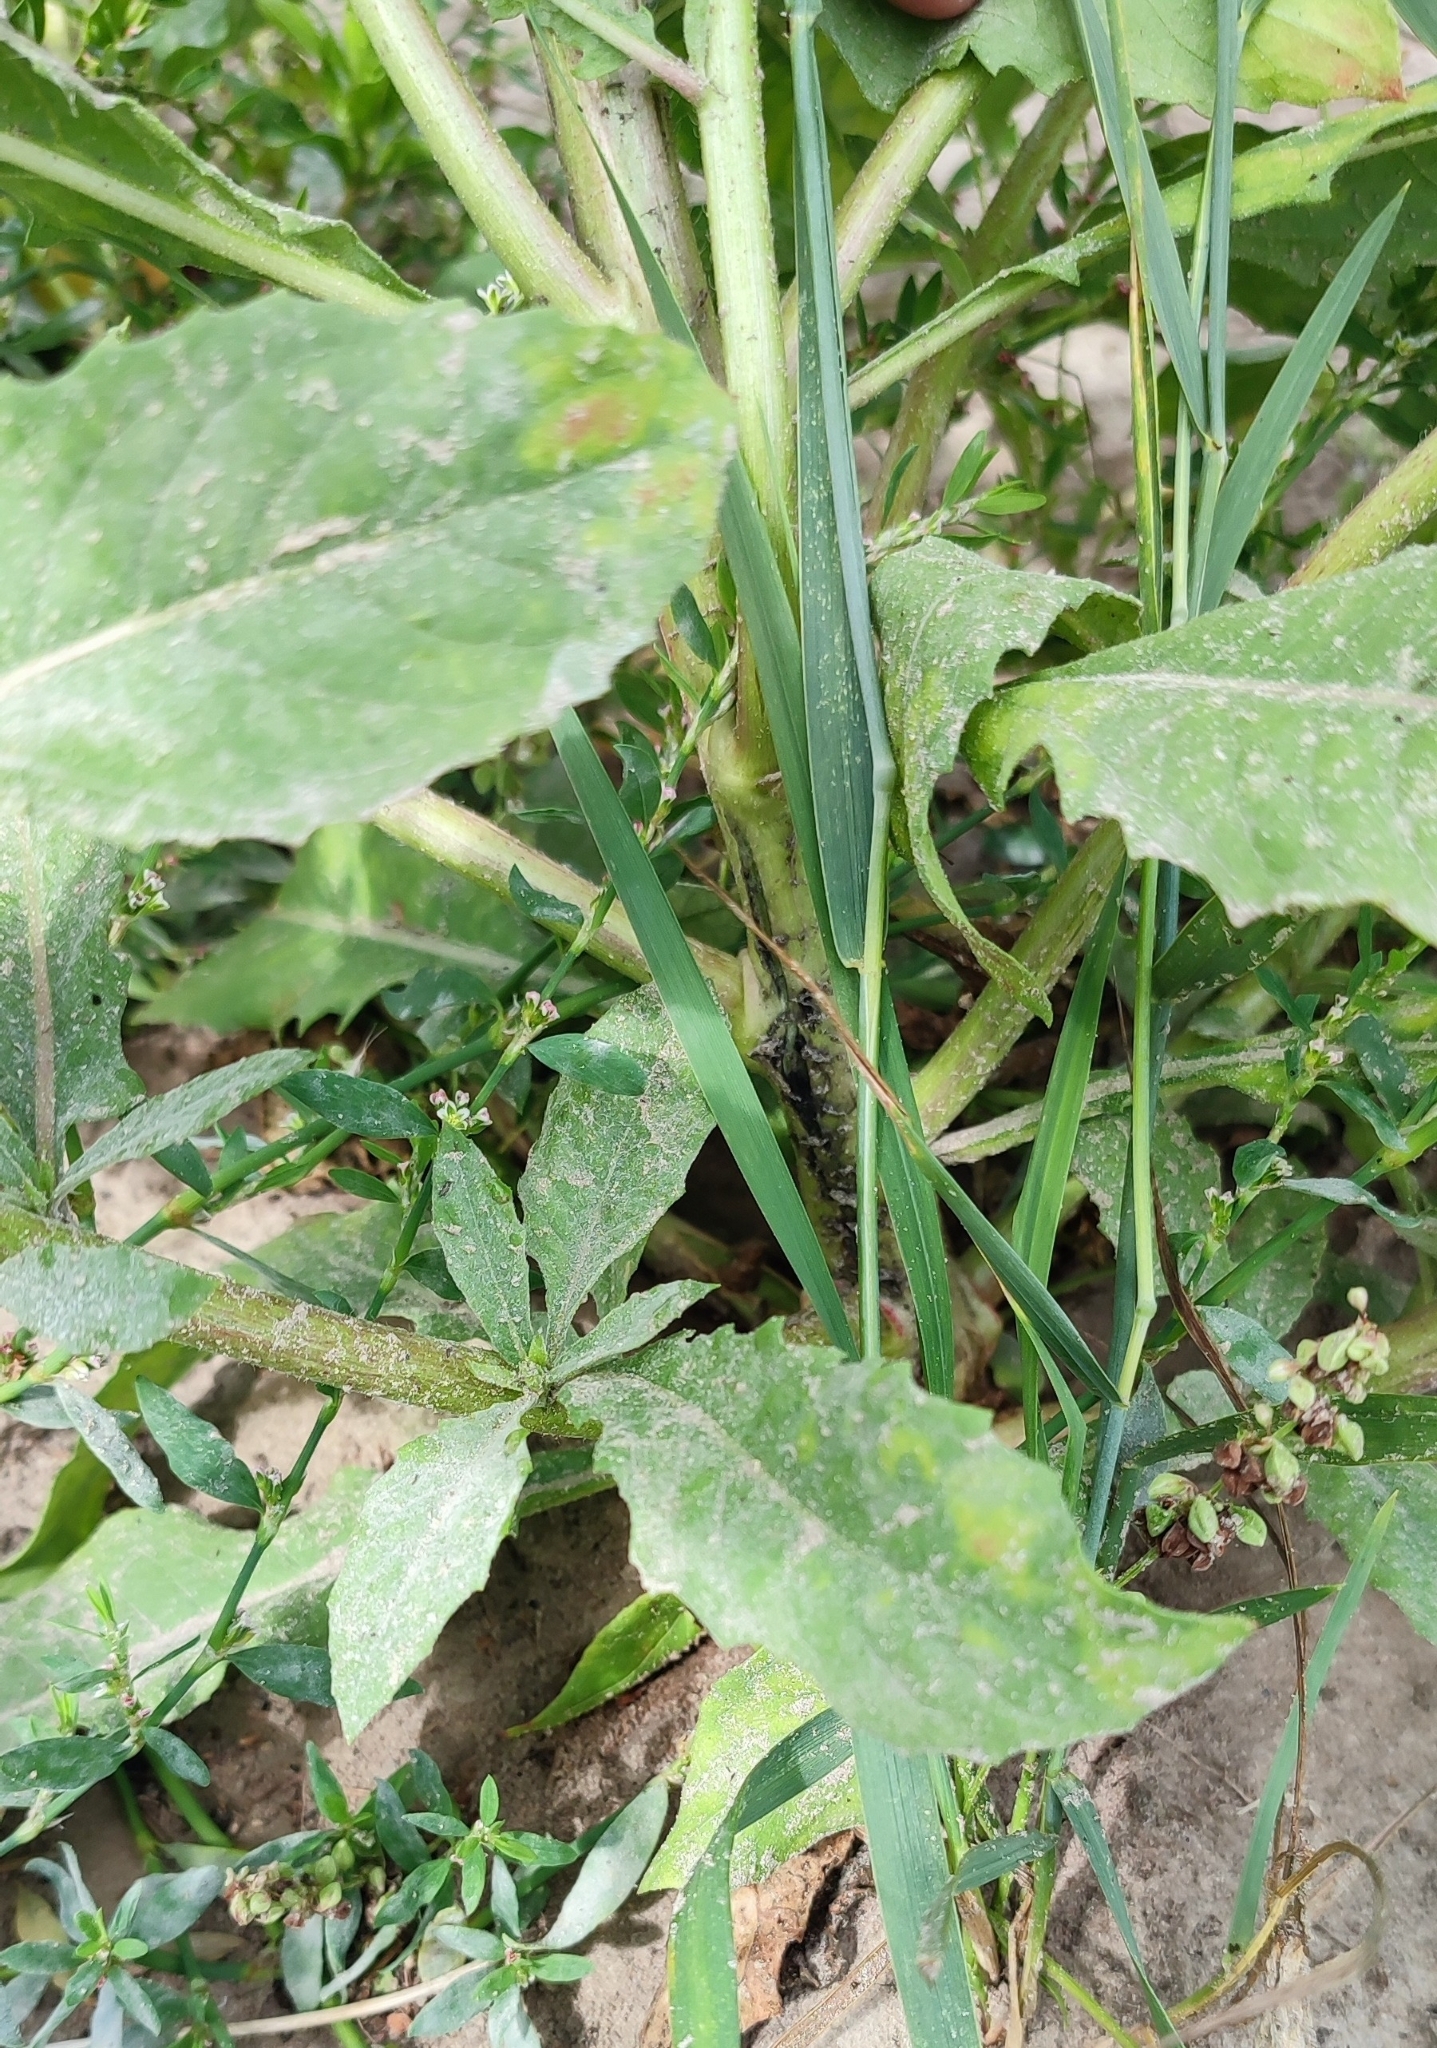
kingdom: Plantae
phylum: Tracheophyta
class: Magnoliopsida
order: Myrtales
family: Onagraceae
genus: Oenothera
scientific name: Oenothera rubricaulis
